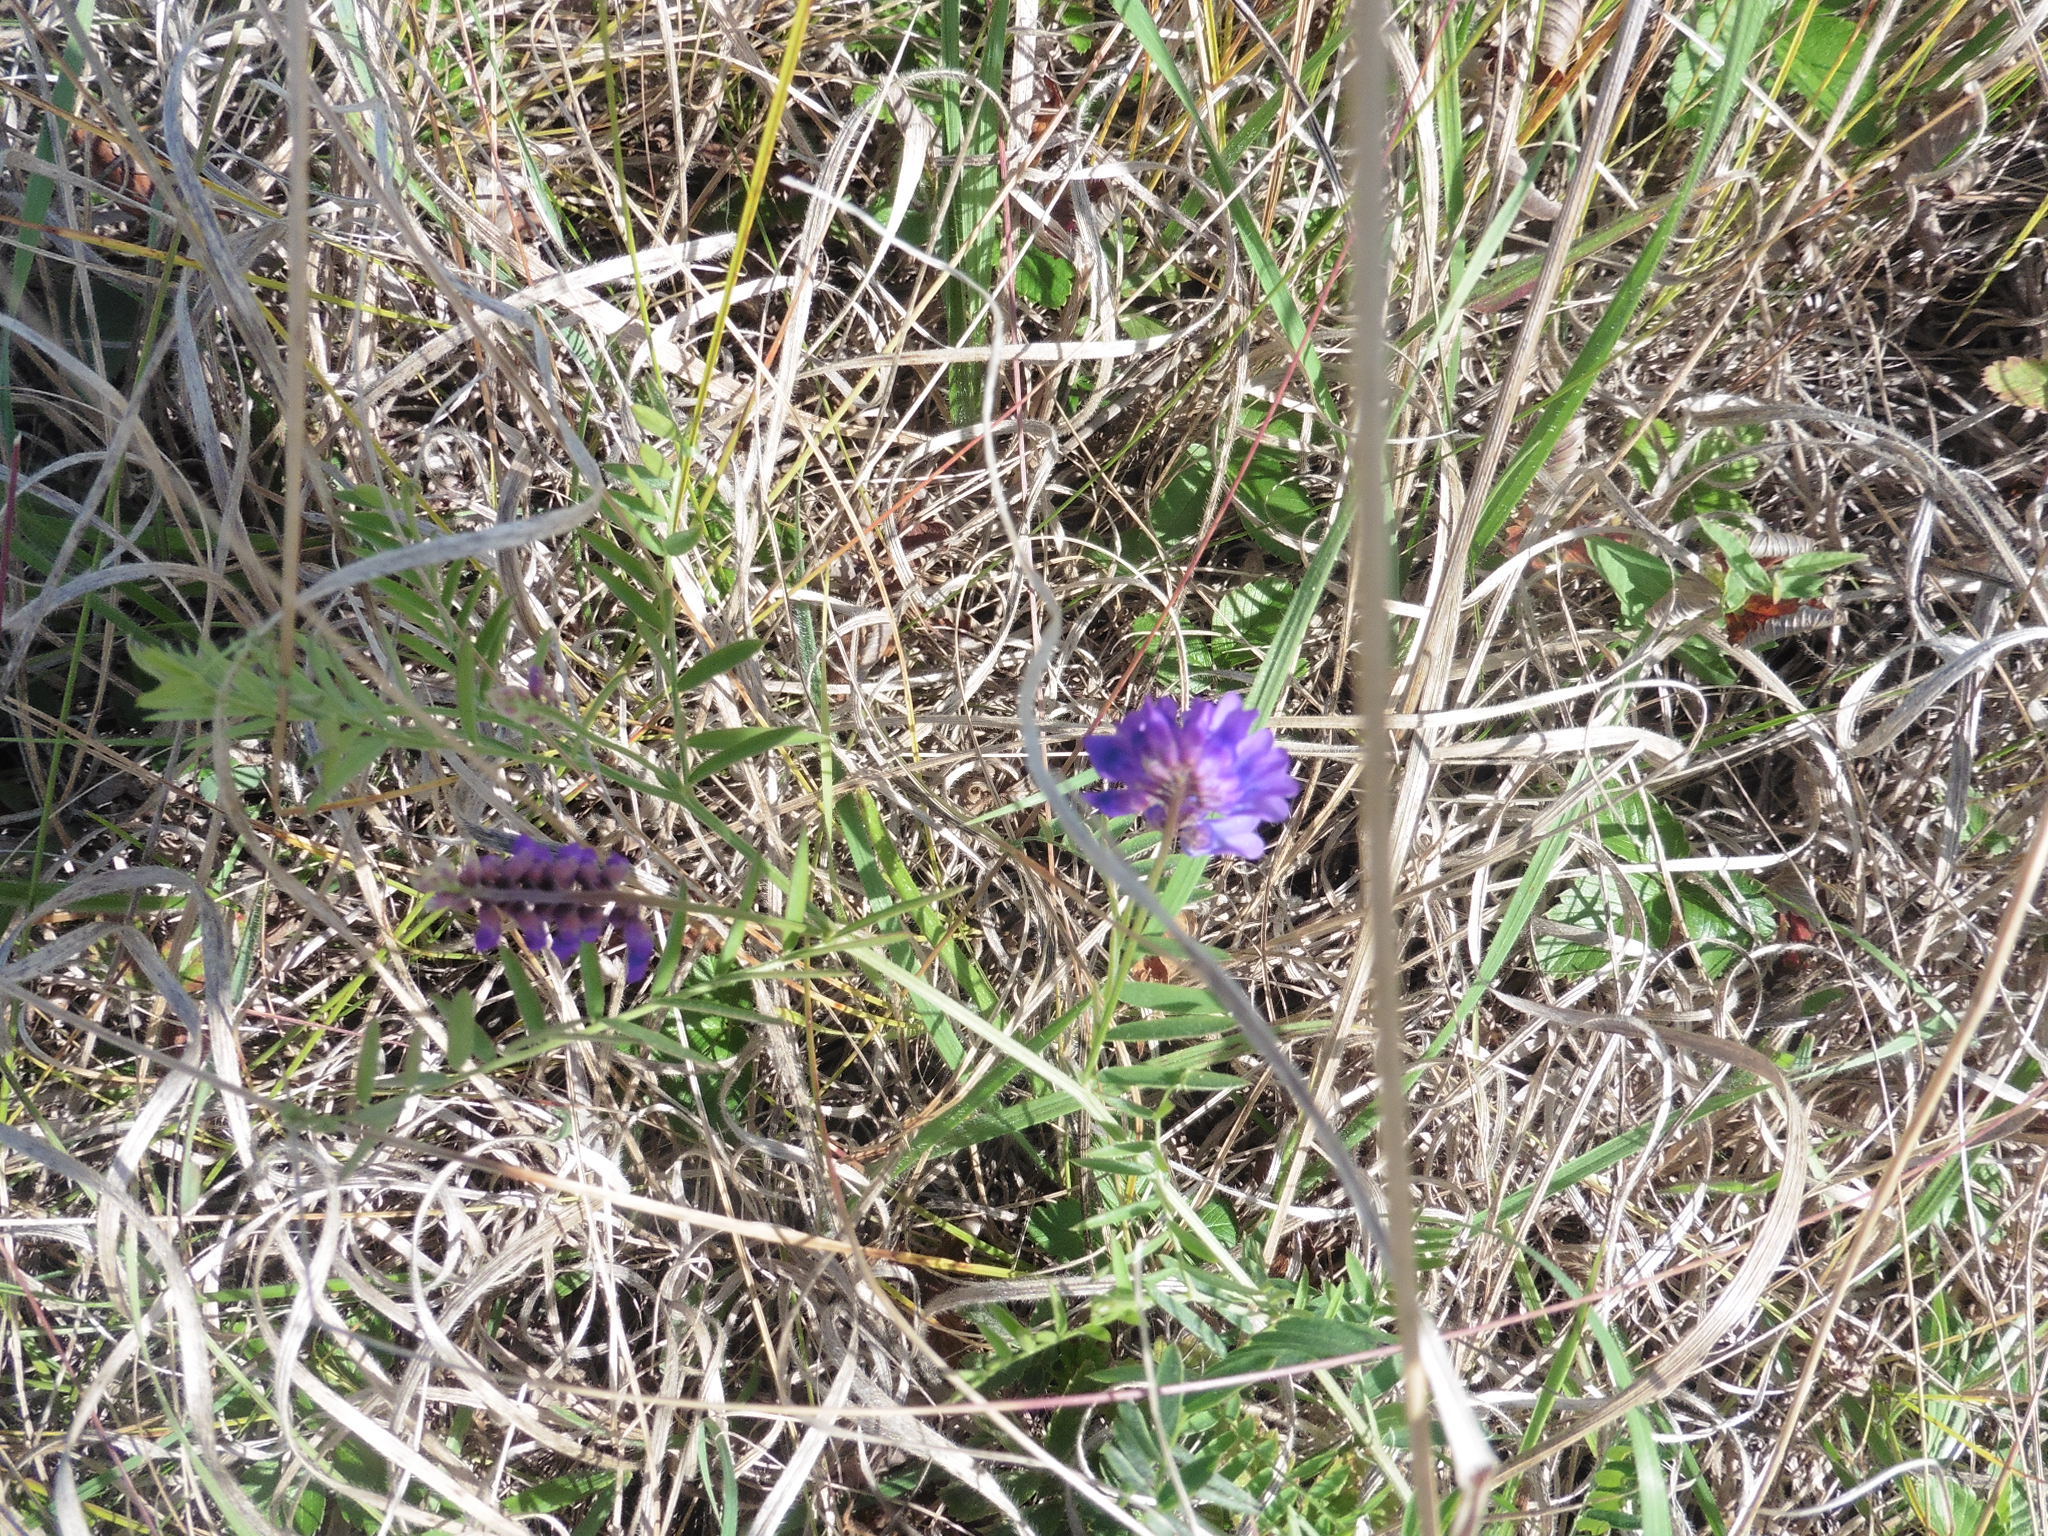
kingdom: Plantae
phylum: Tracheophyta
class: Magnoliopsida
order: Fabales
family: Fabaceae
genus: Vicia
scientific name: Vicia cracca
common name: Bird vetch
